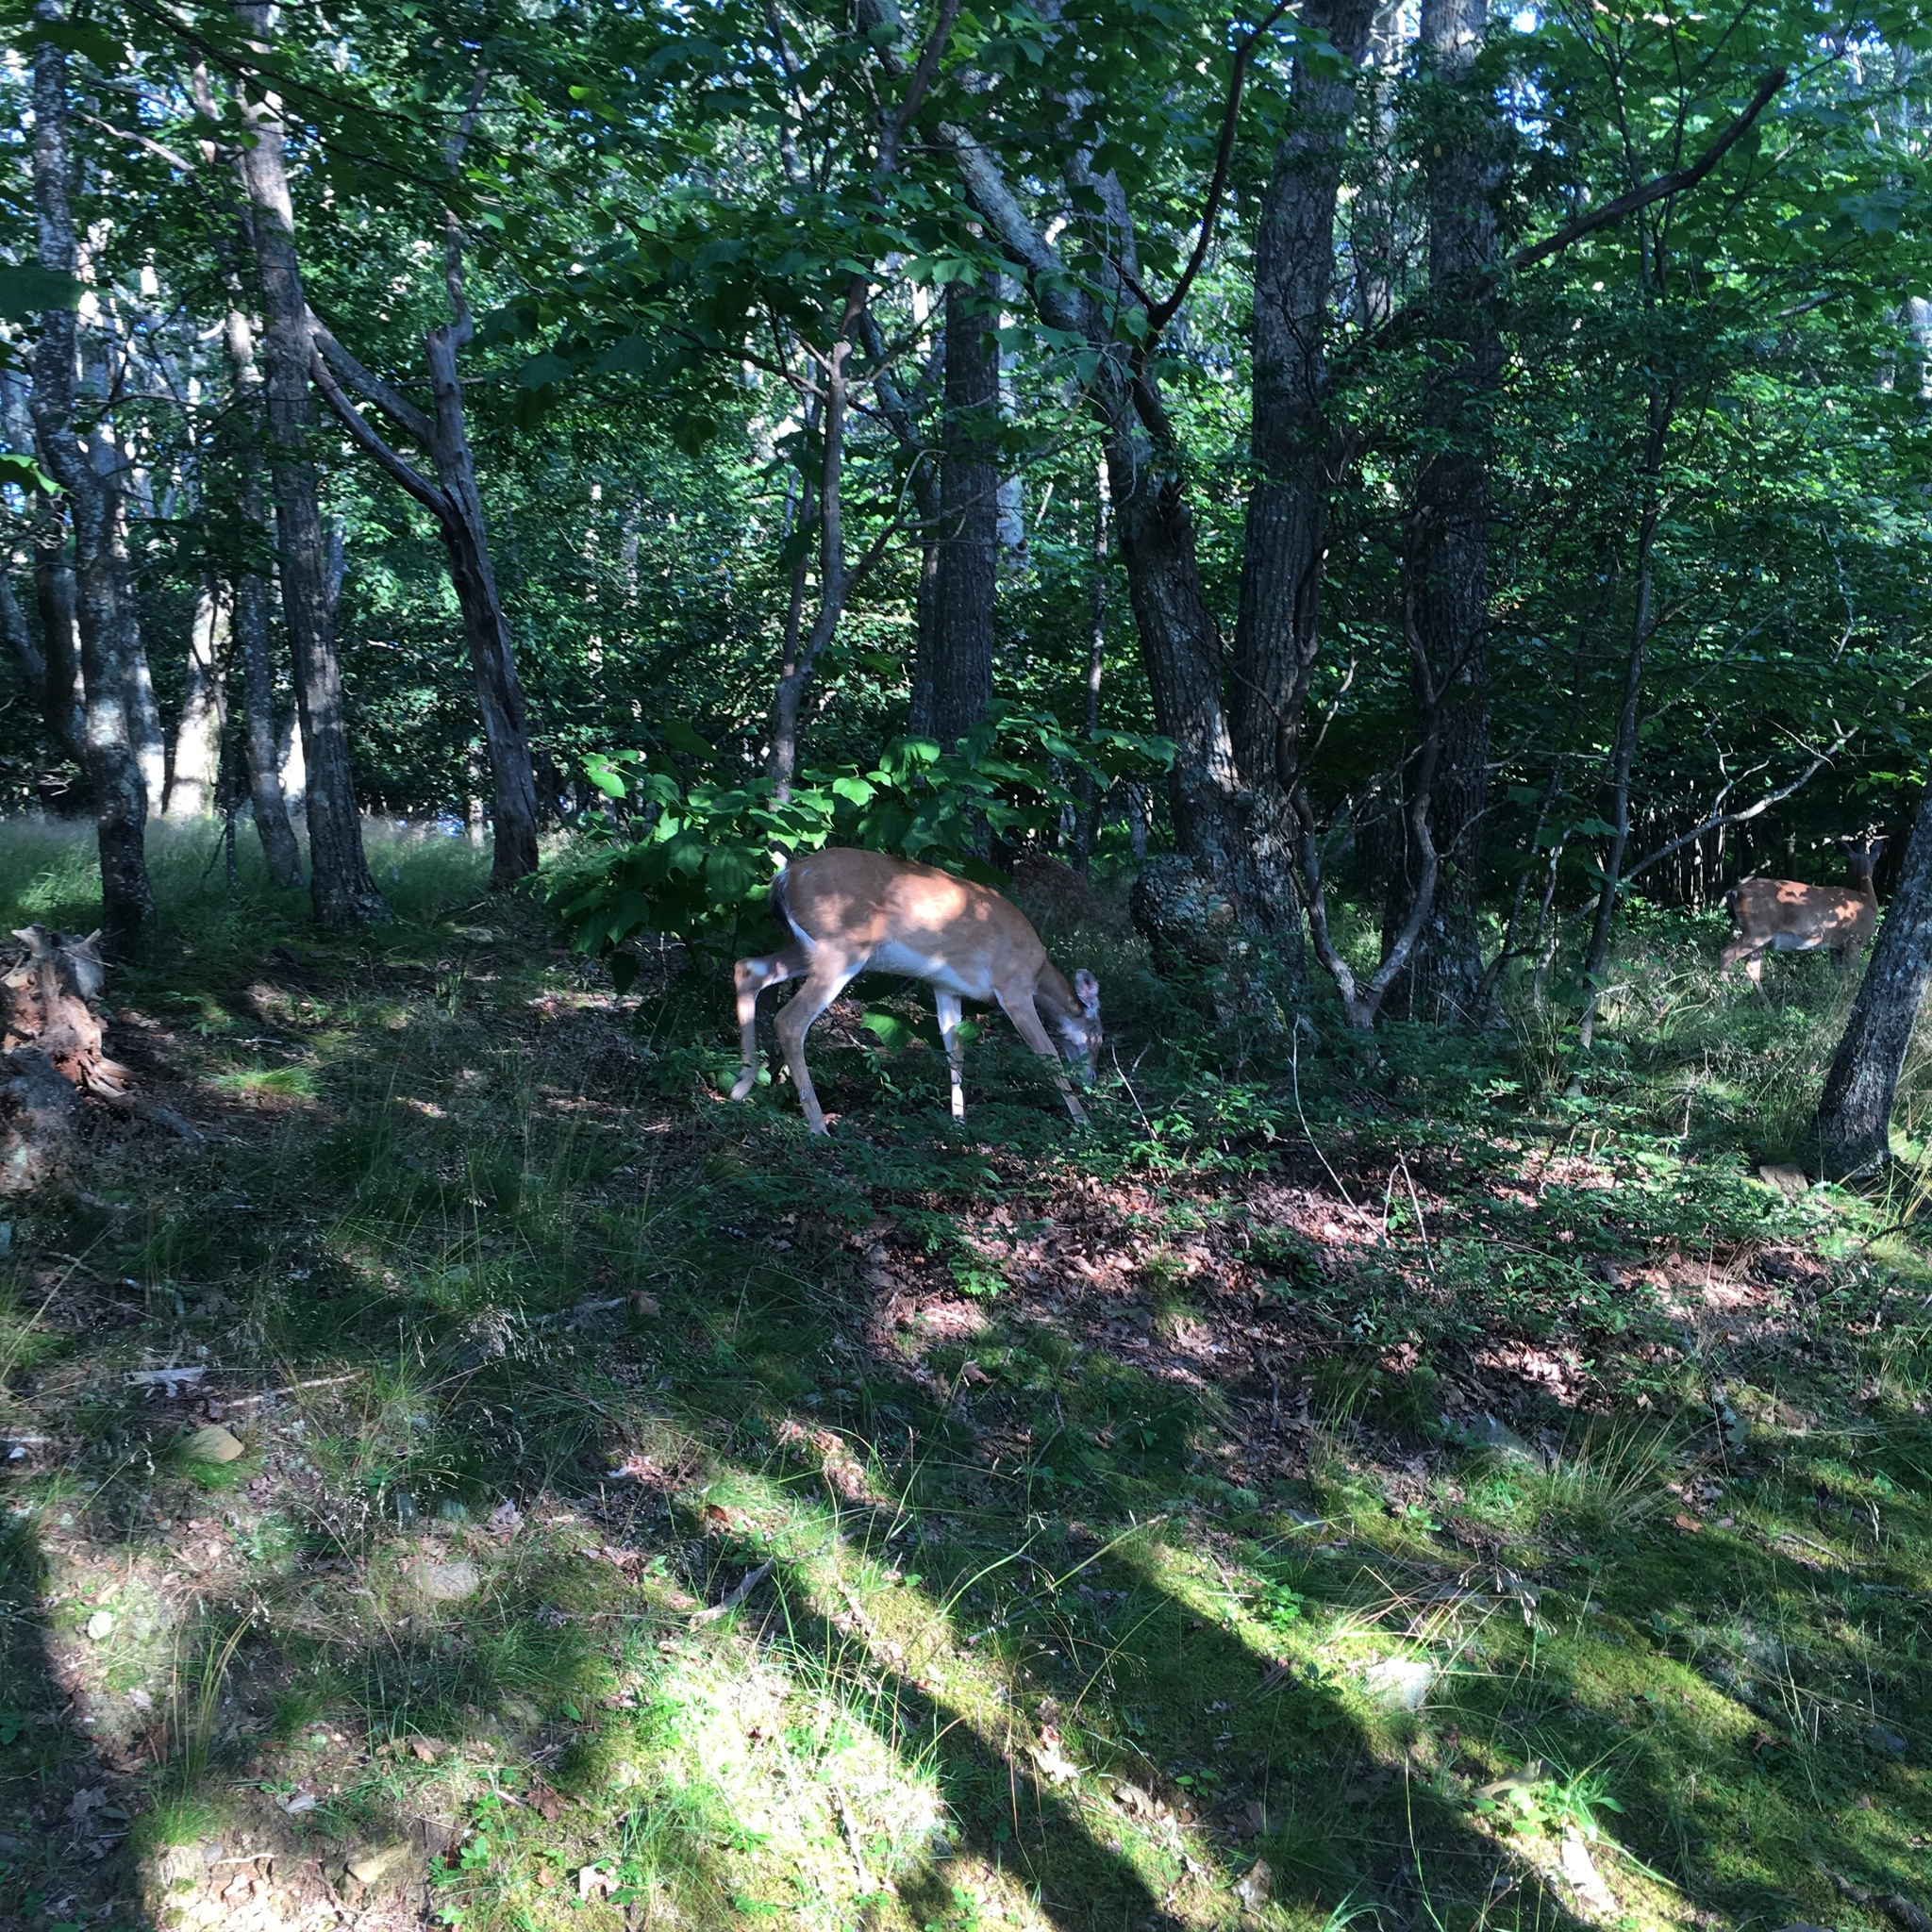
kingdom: Animalia
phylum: Chordata
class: Mammalia
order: Artiodactyla
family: Cervidae
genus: Odocoileus
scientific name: Odocoileus virginianus
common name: White-tailed deer
